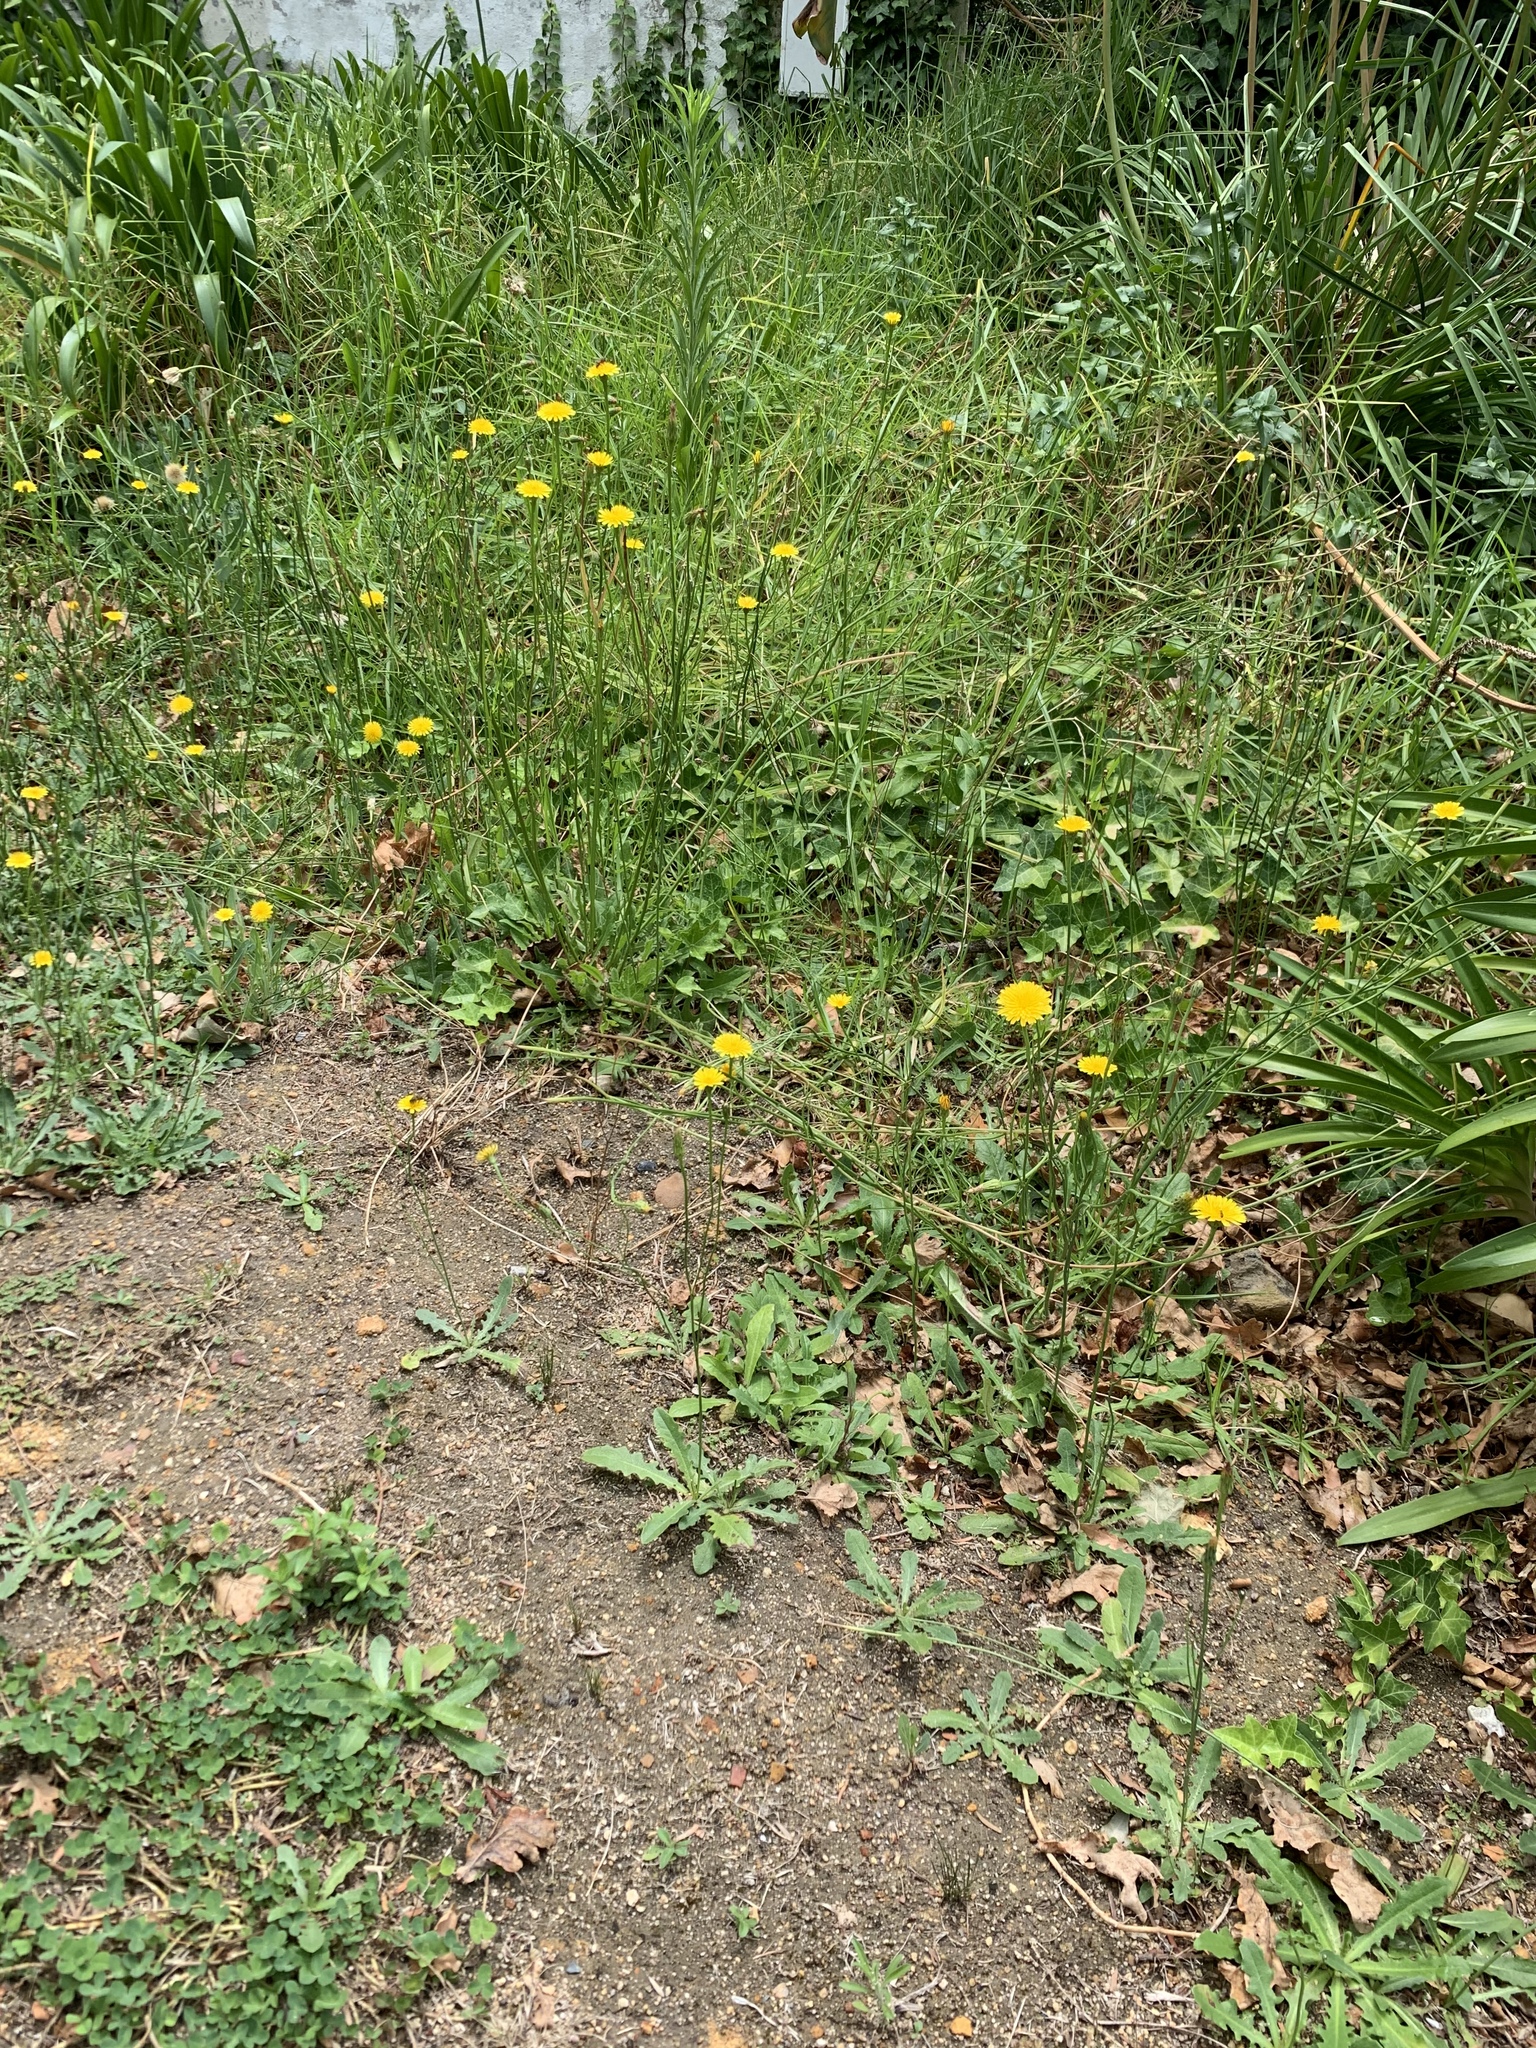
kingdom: Plantae
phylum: Tracheophyta
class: Magnoliopsida
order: Asterales
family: Asteraceae
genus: Hypochaeris
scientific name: Hypochaeris radicata
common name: Flatweed
